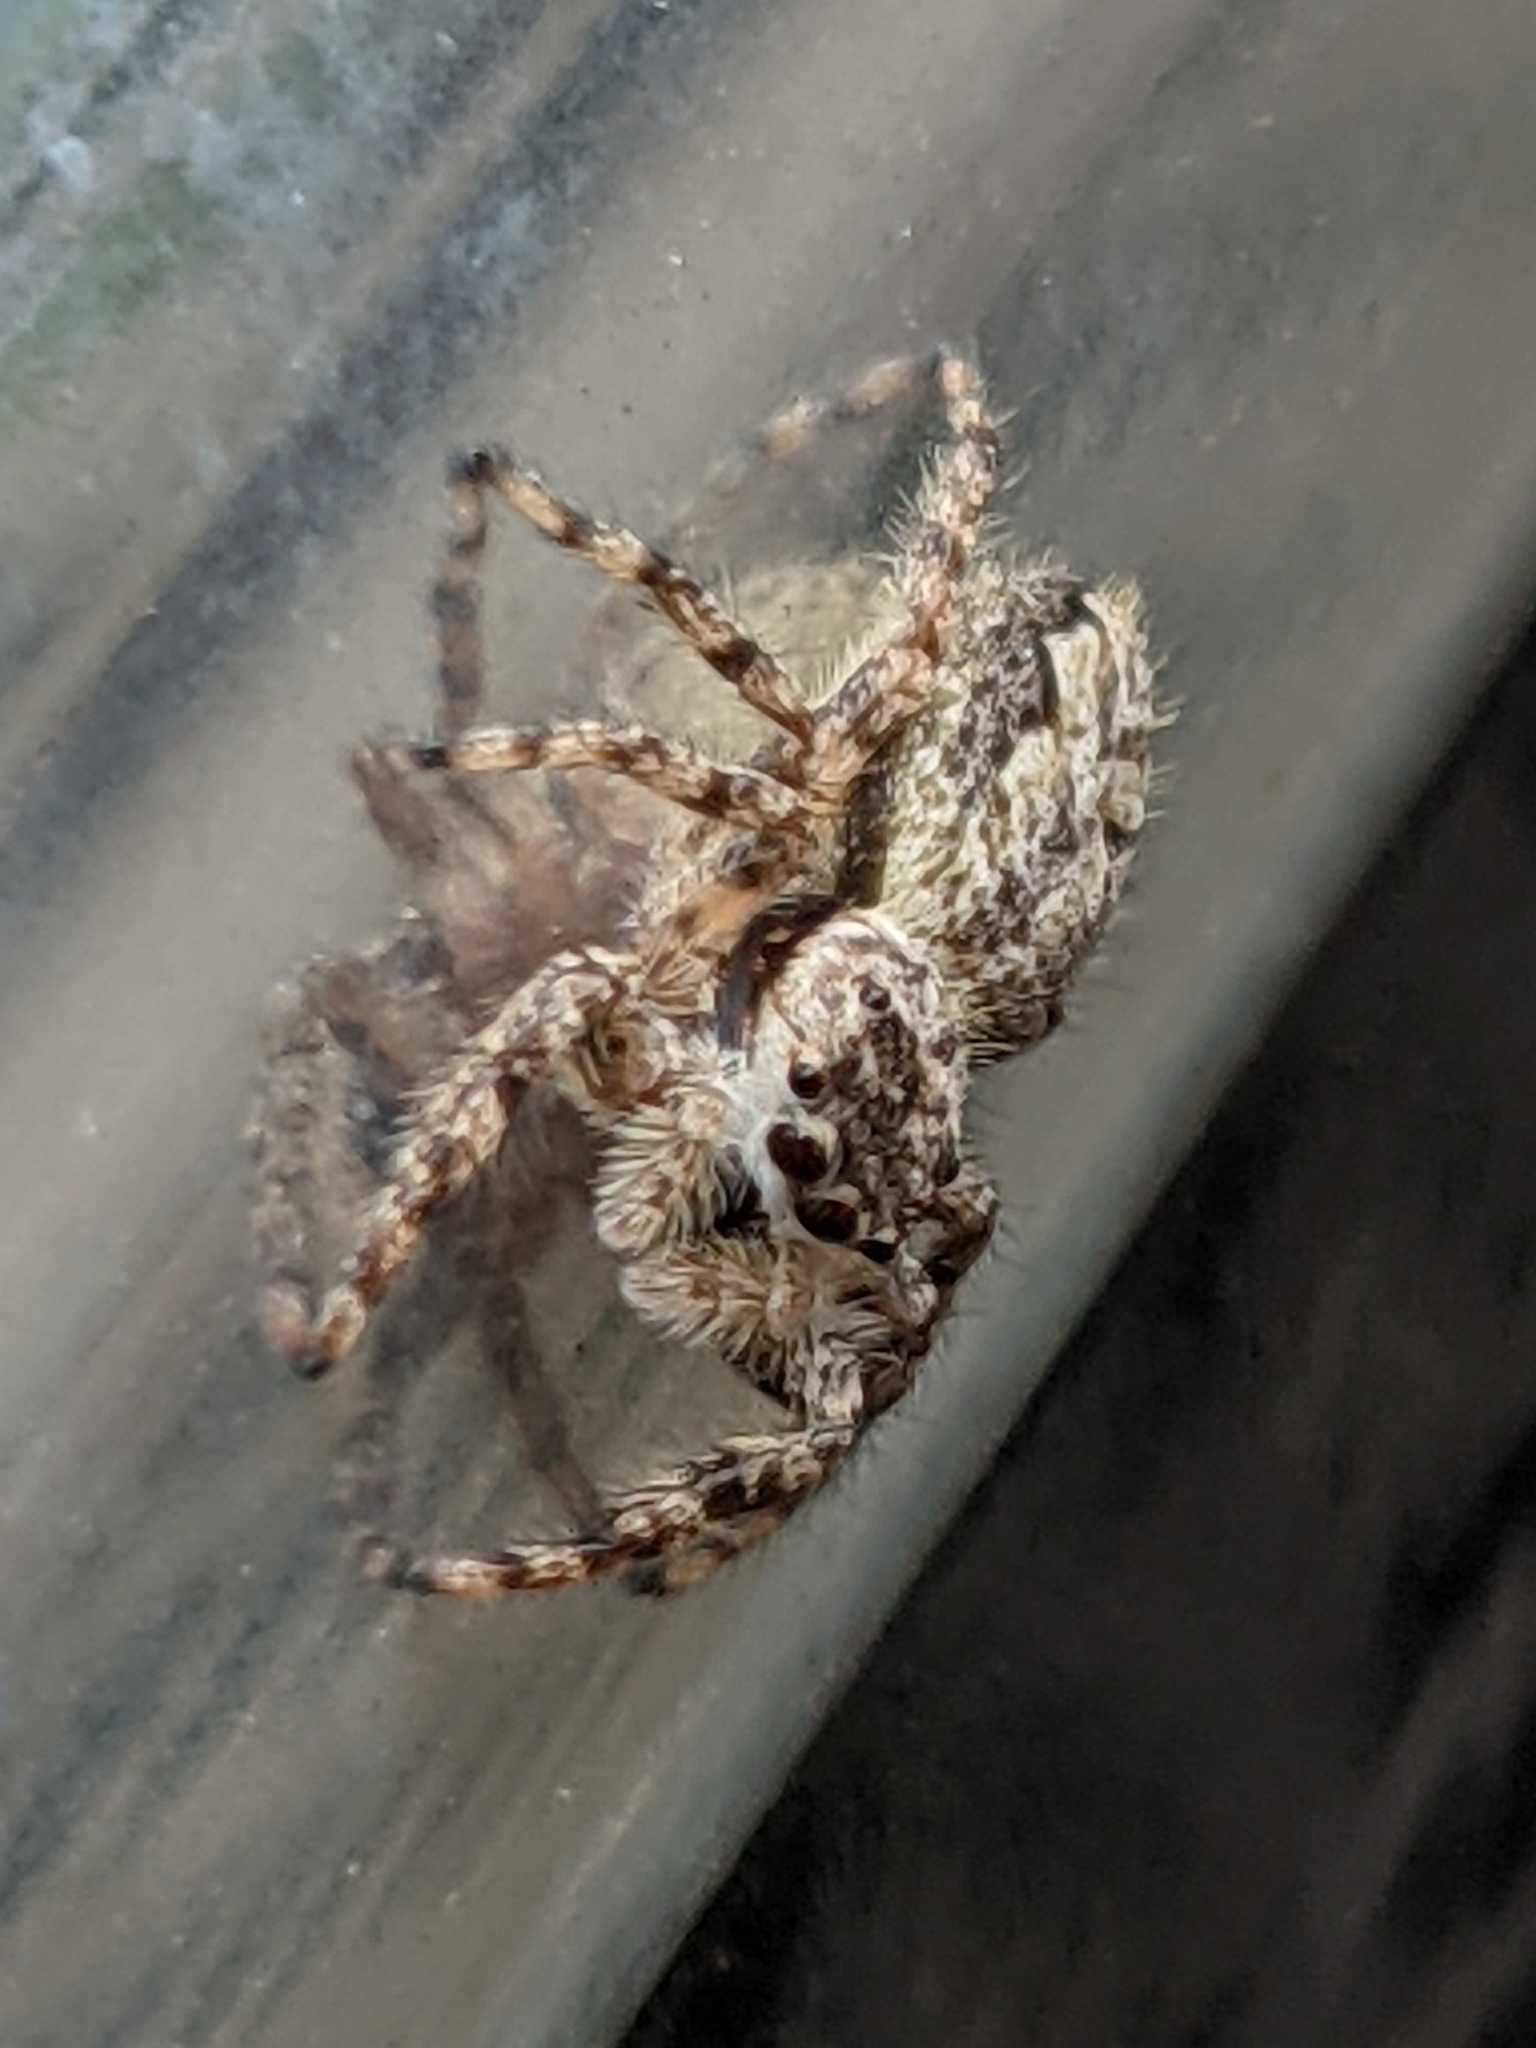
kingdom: Animalia
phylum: Arthropoda
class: Arachnida
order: Araneae
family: Salticidae
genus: Platycryptus
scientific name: Platycryptus undatus
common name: Tan jumping spider
